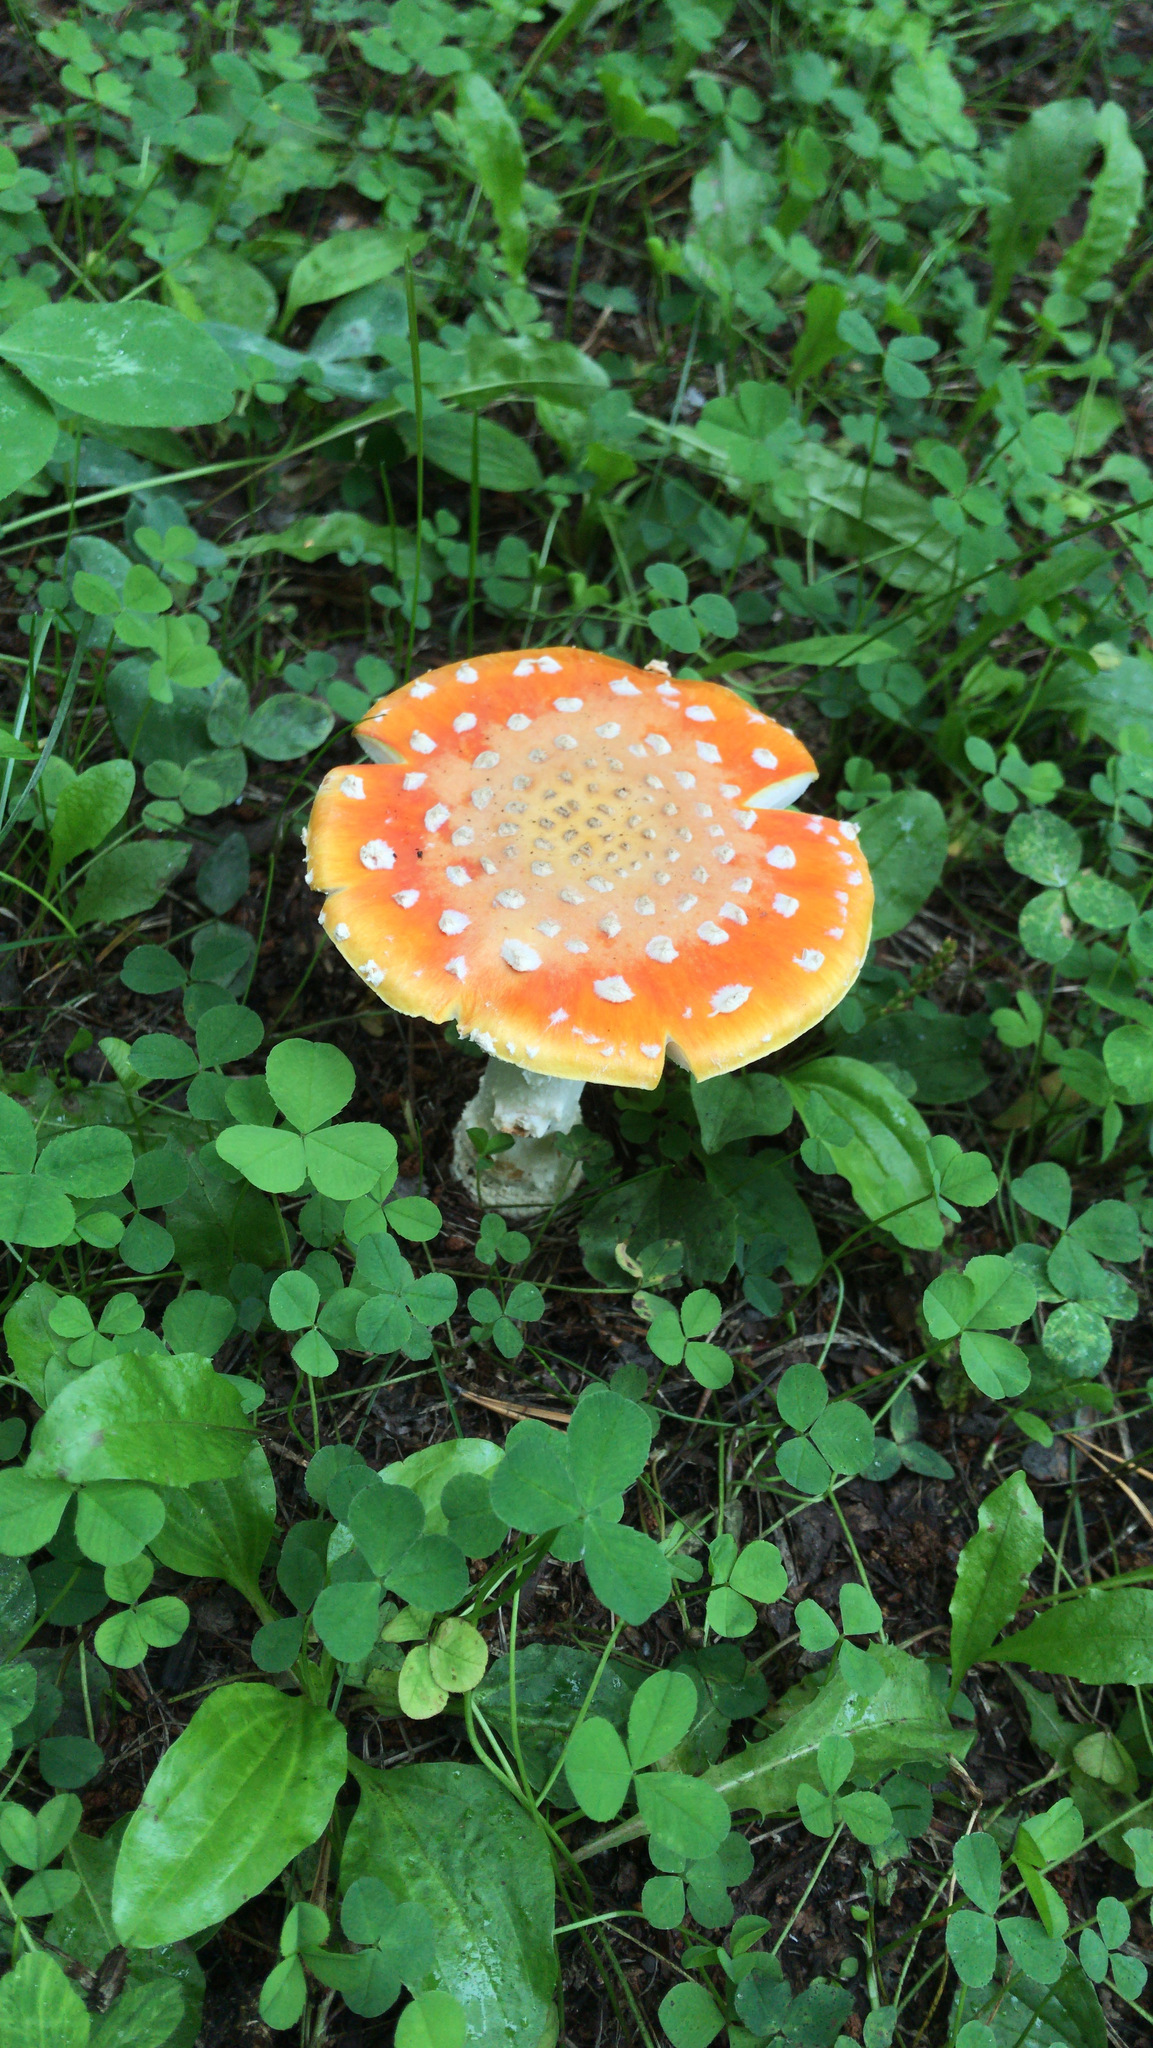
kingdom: Fungi
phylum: Basidiomycota
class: Agaricomycetes
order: Agaricales
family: Amanitaceae
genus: Amanita
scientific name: Amanita muscaria
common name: Fly agaric
